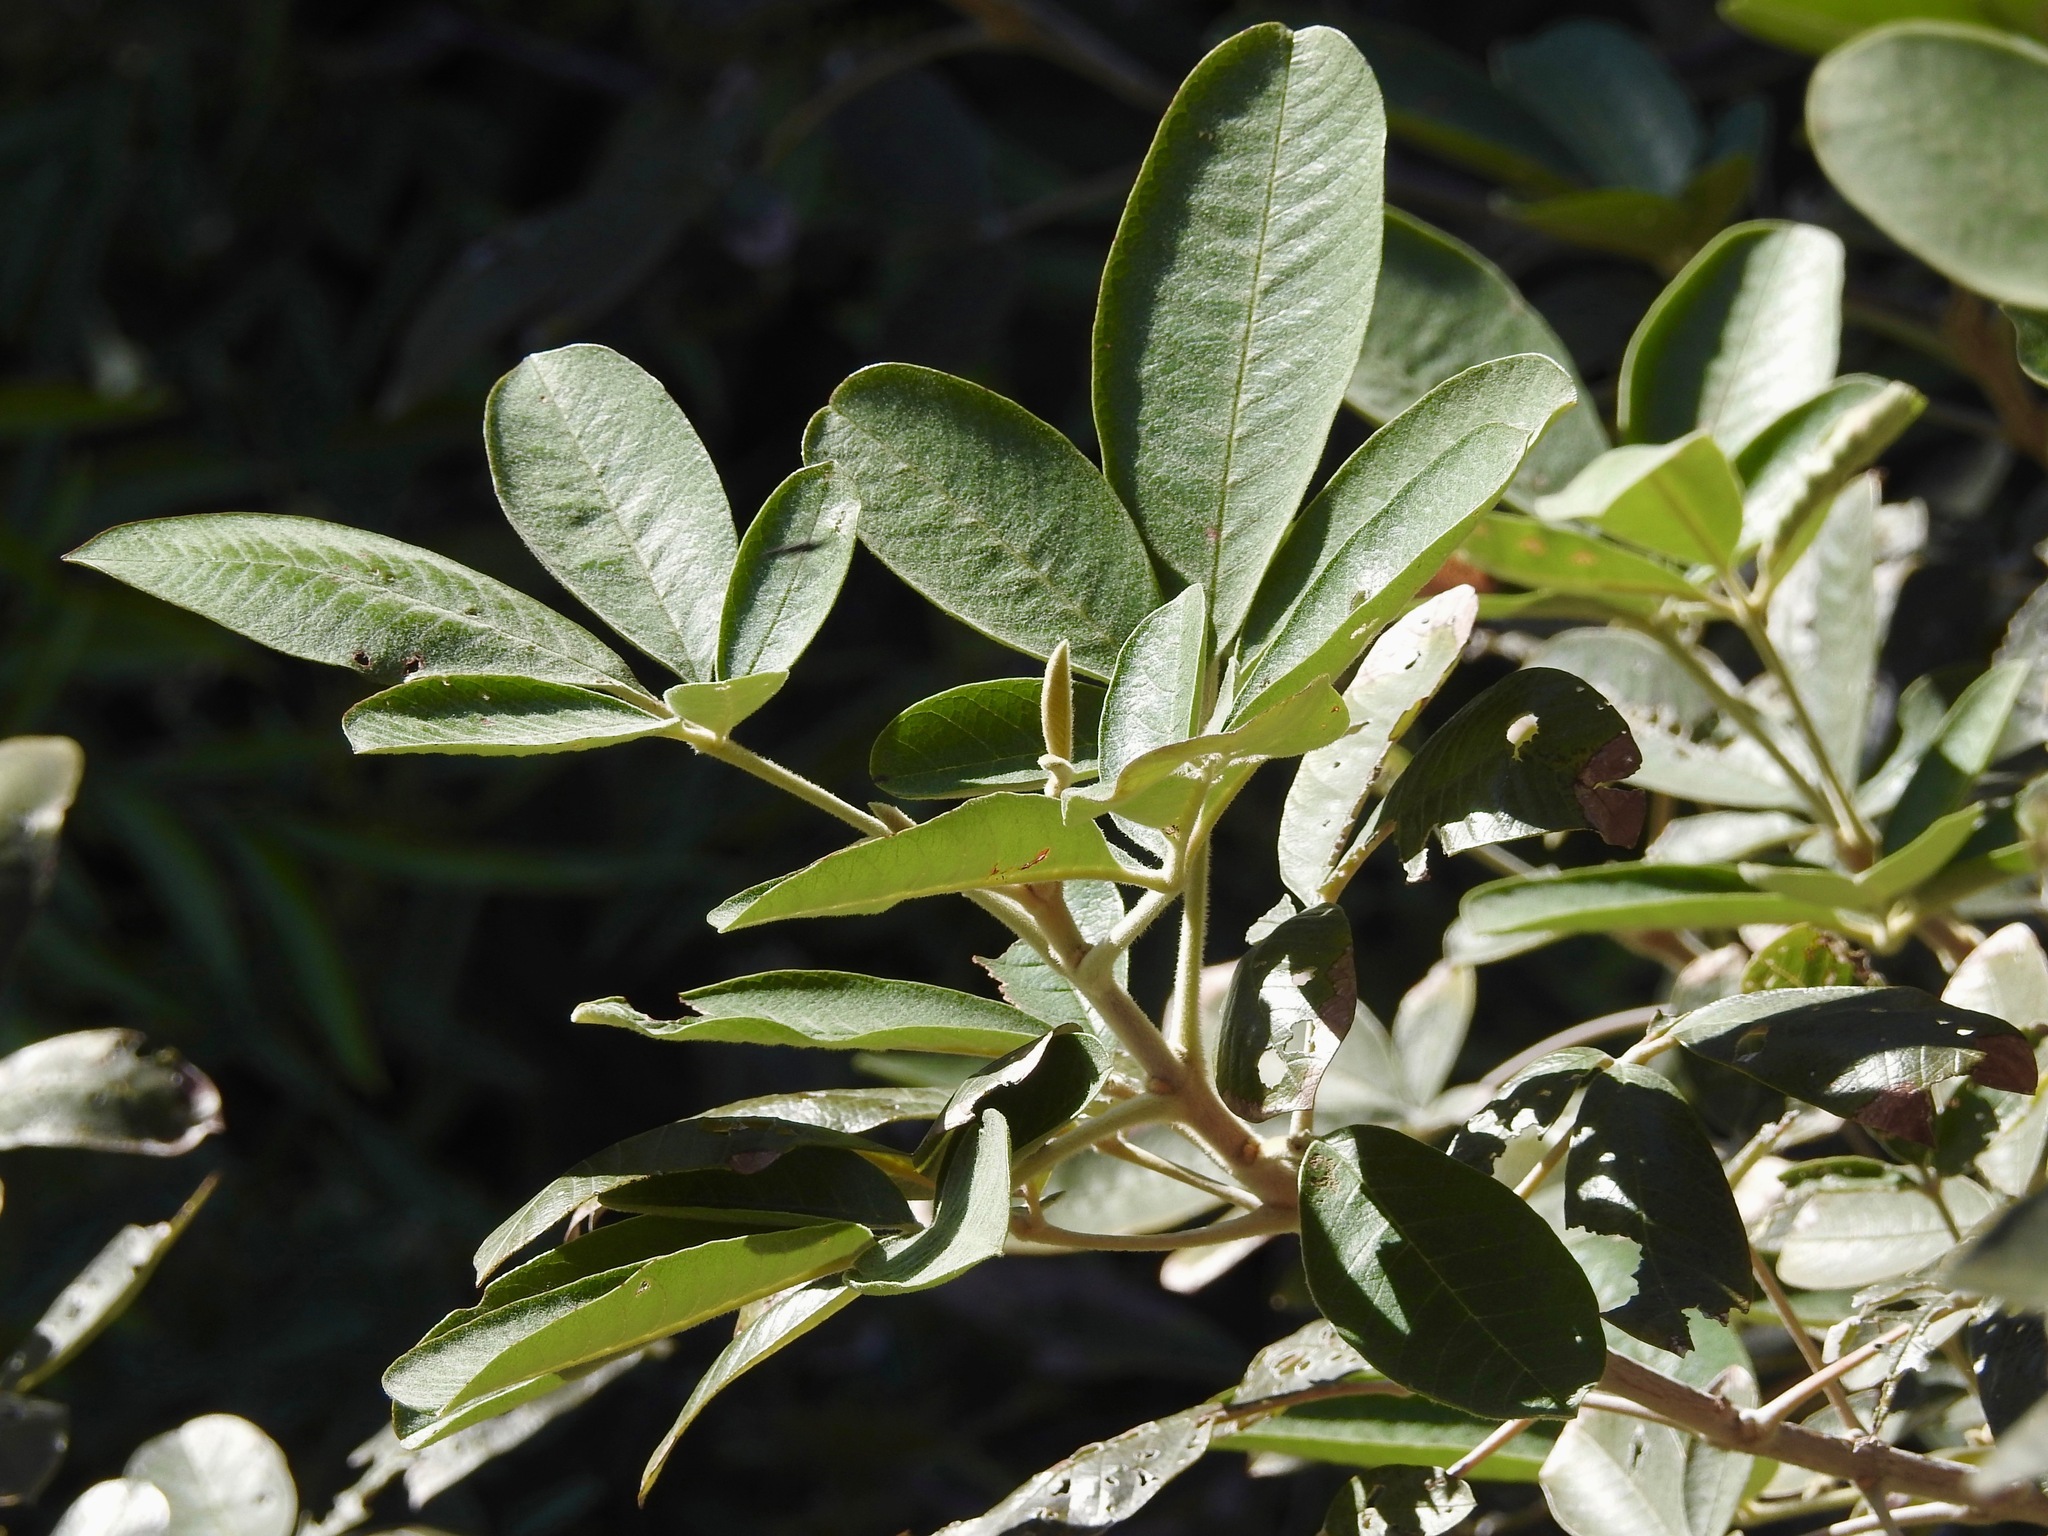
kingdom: Plantae
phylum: Tracheophyta
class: Magnoliopsida
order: Lamiales
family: Lamiaceae
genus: Vitex
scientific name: Vitex mollis
